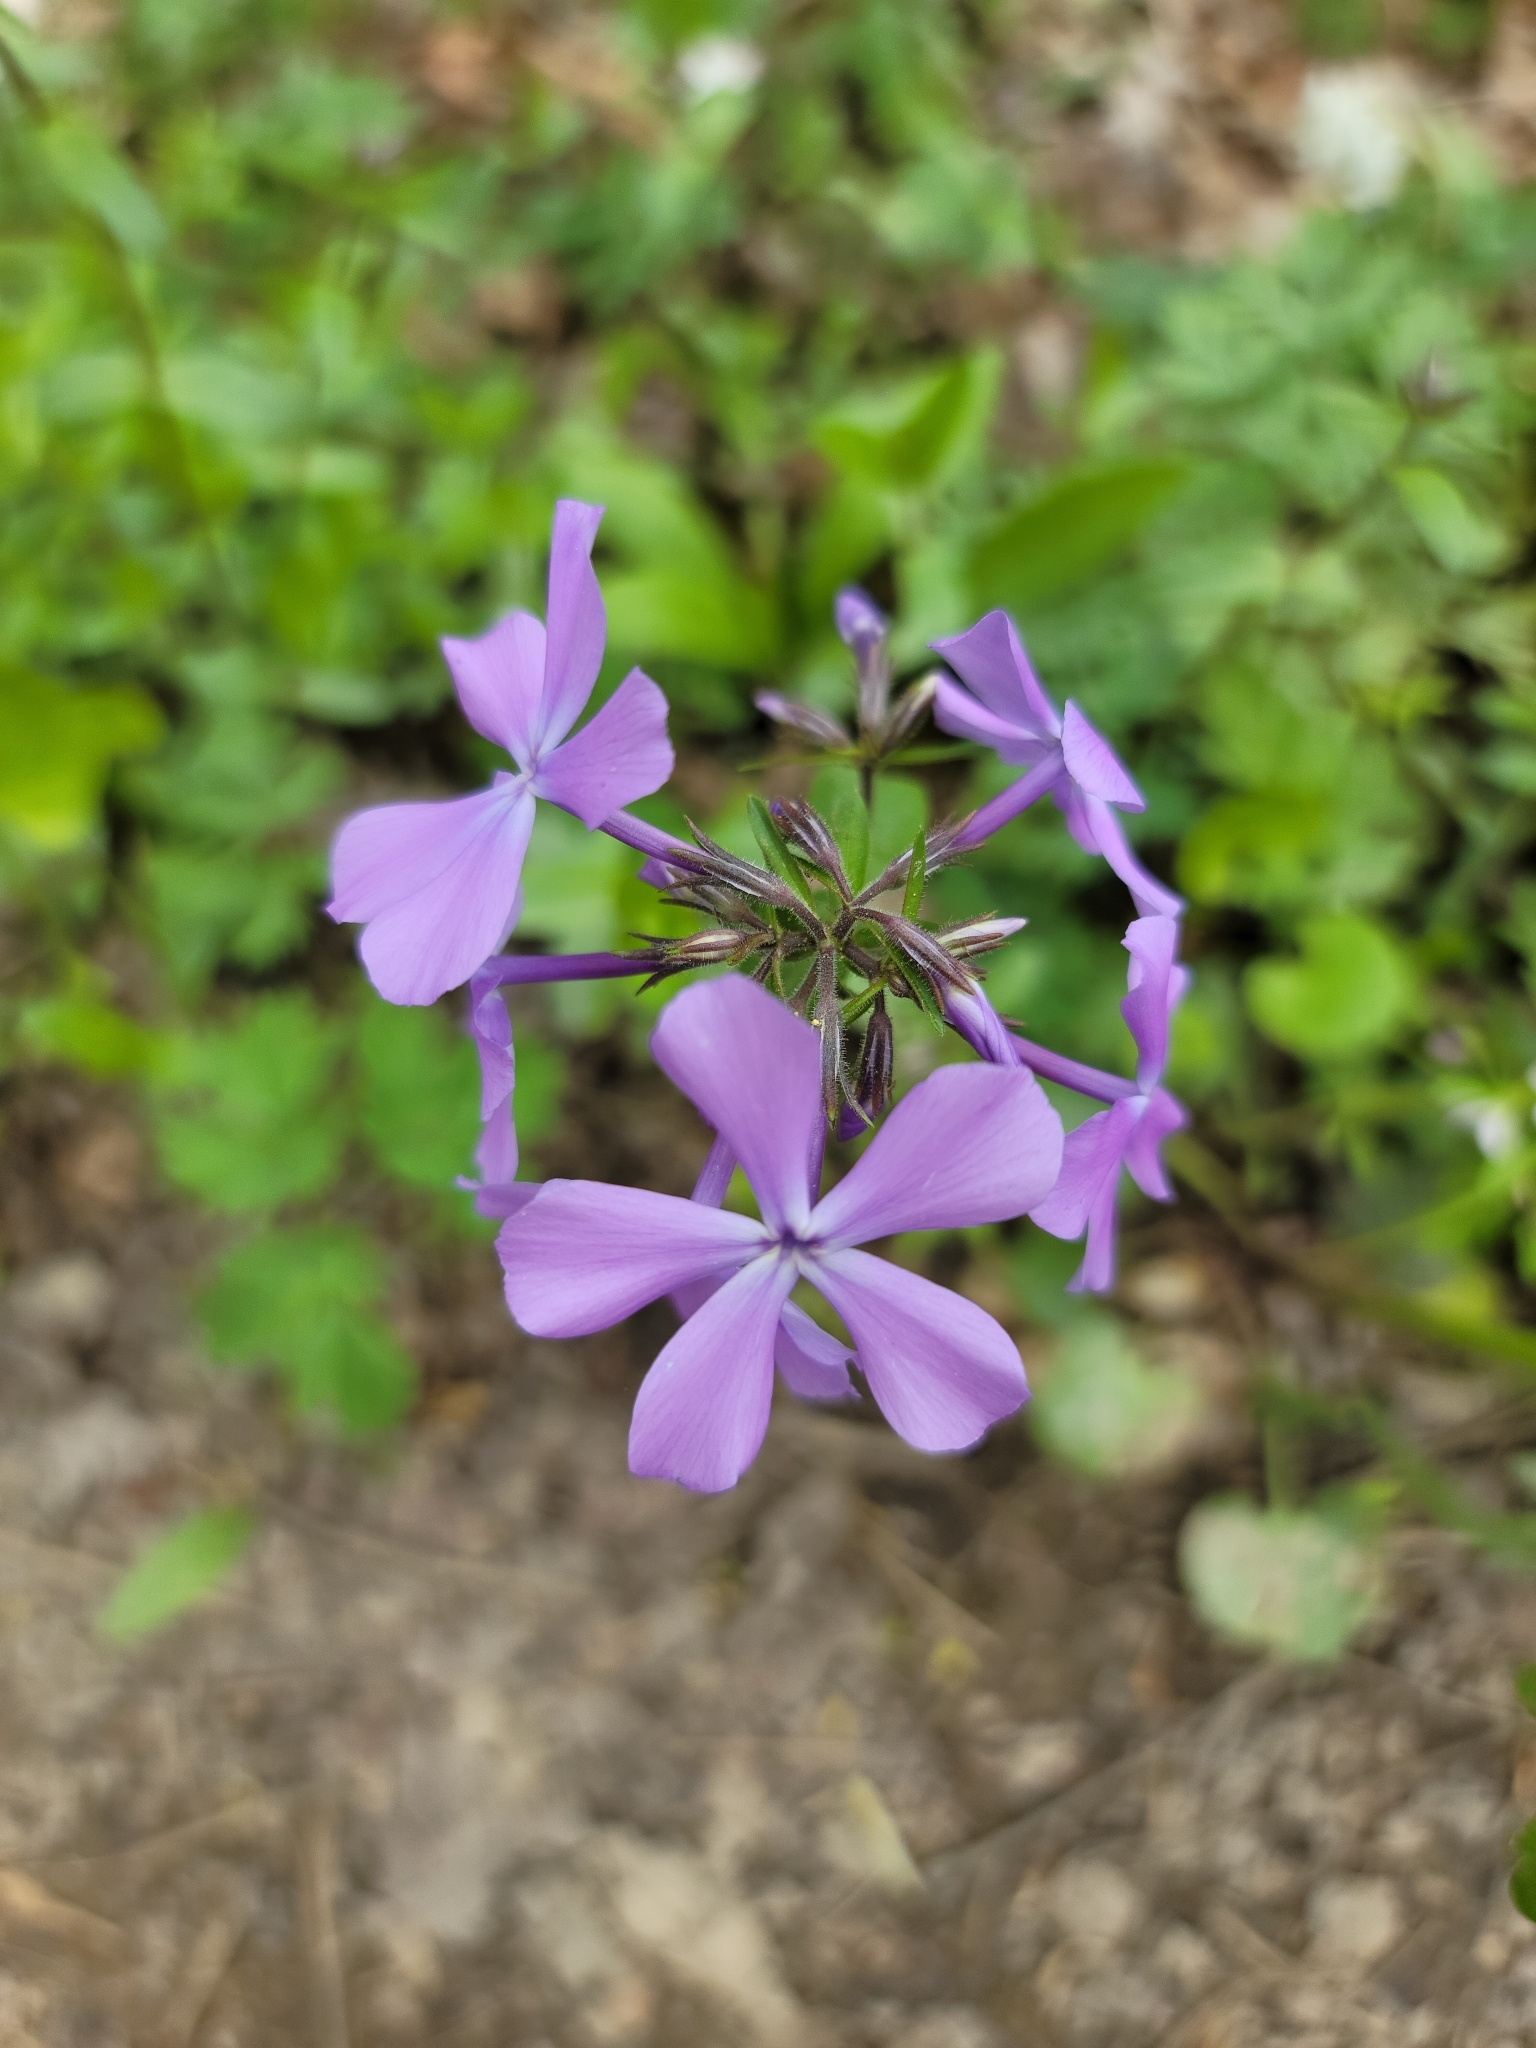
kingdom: Plantae
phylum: Tracheophyta
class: Magnoliopsida
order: Ericales
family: Polemoniaceae
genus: Phlox
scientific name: Phlox divaricata
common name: Blue phlox
